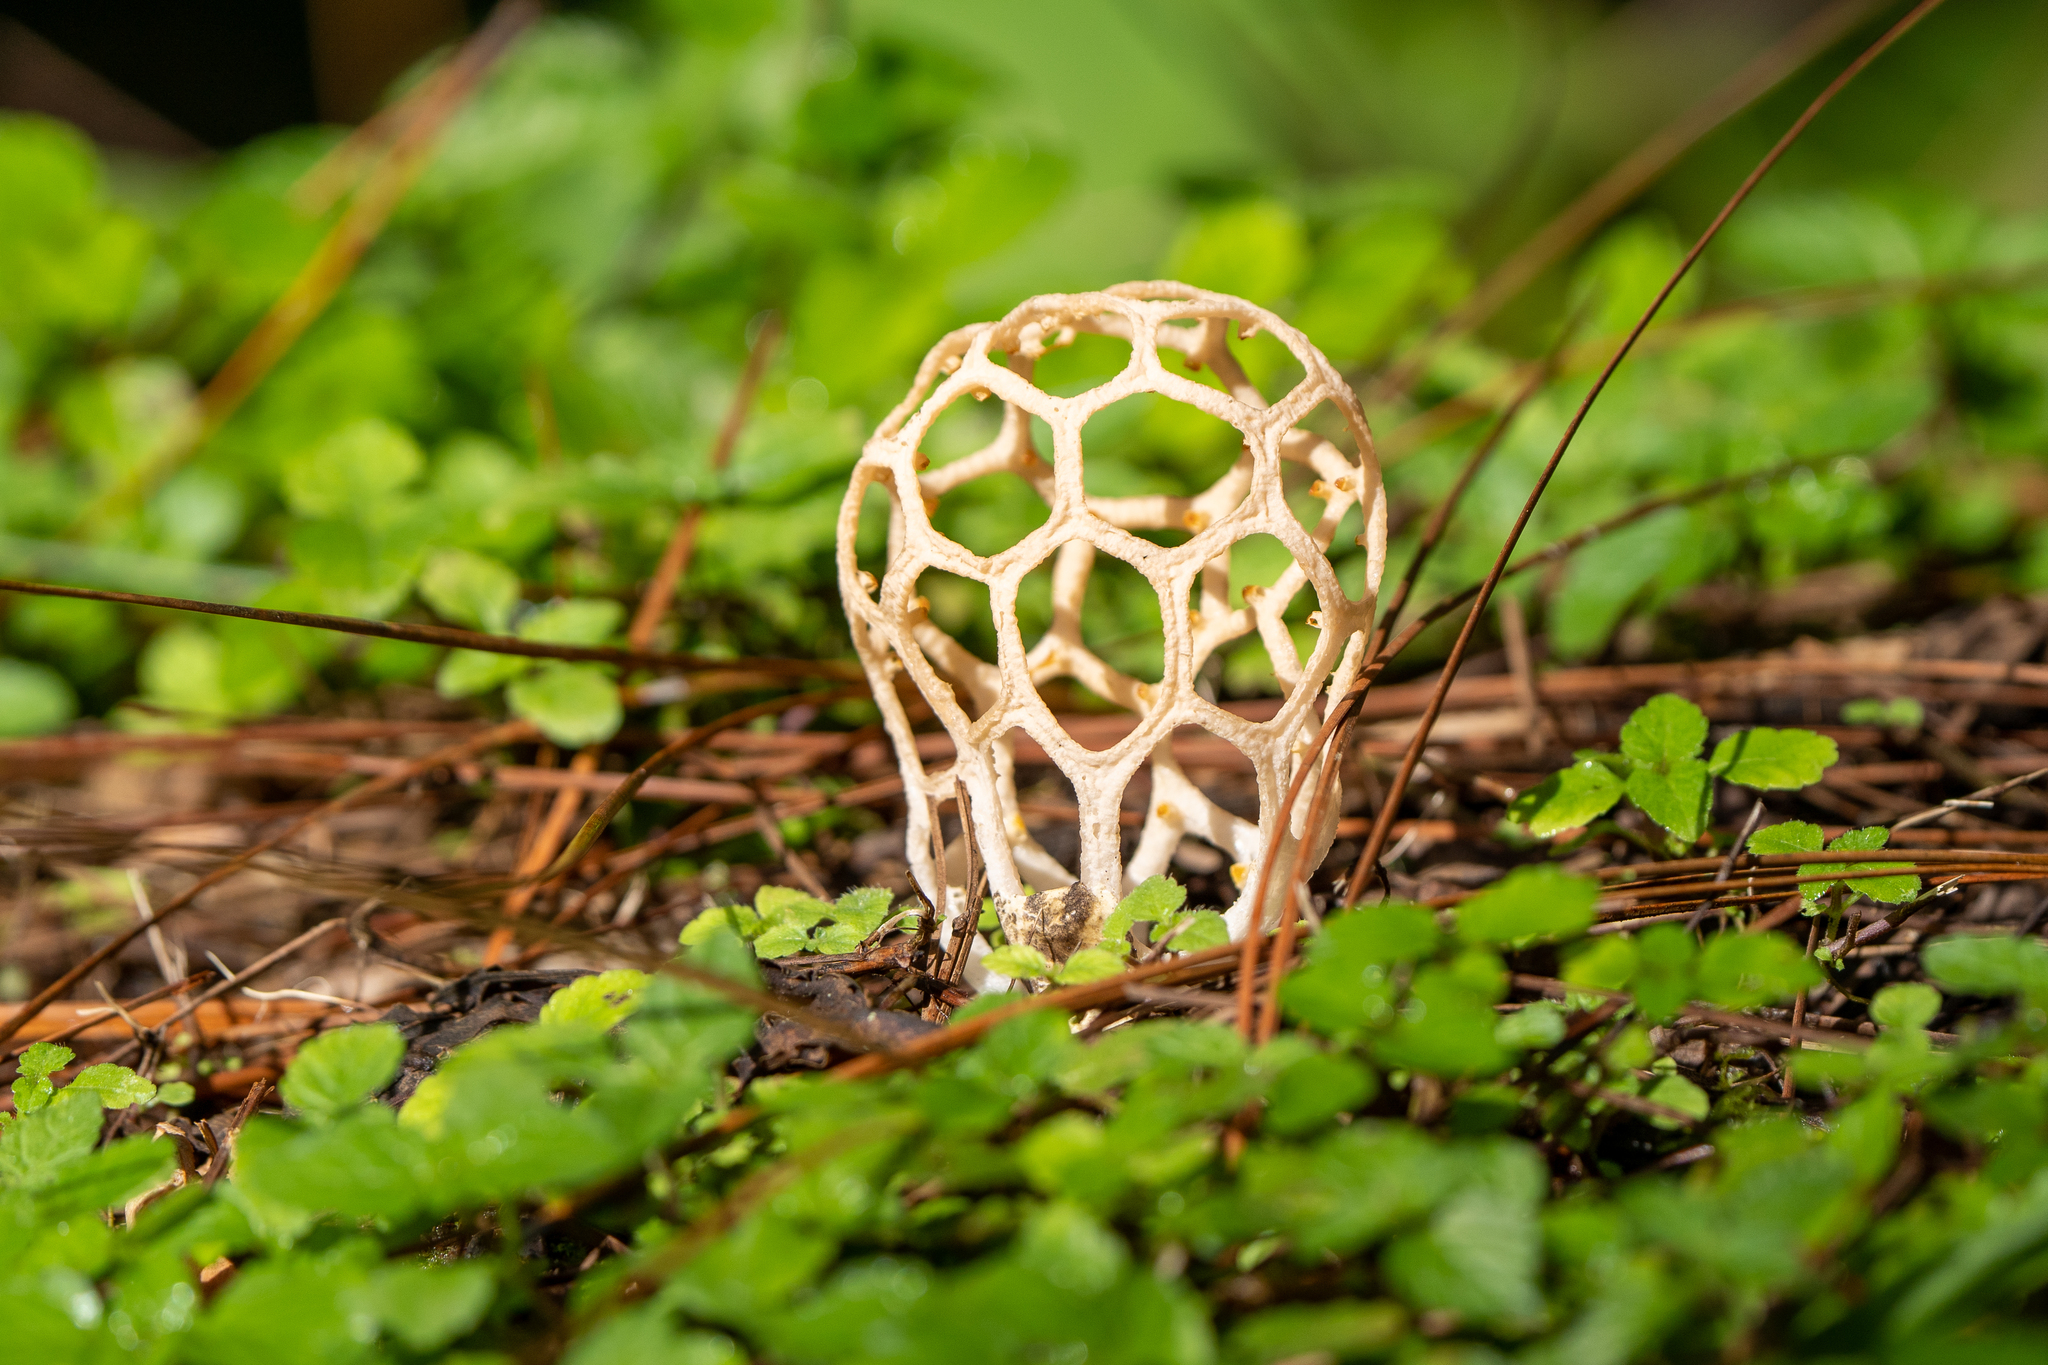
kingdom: Fungi
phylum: Basidiomycota
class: Agaricomycetes
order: Phallales
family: Phallaceae
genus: Clathrus
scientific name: Clathrus chrysomycelinus
